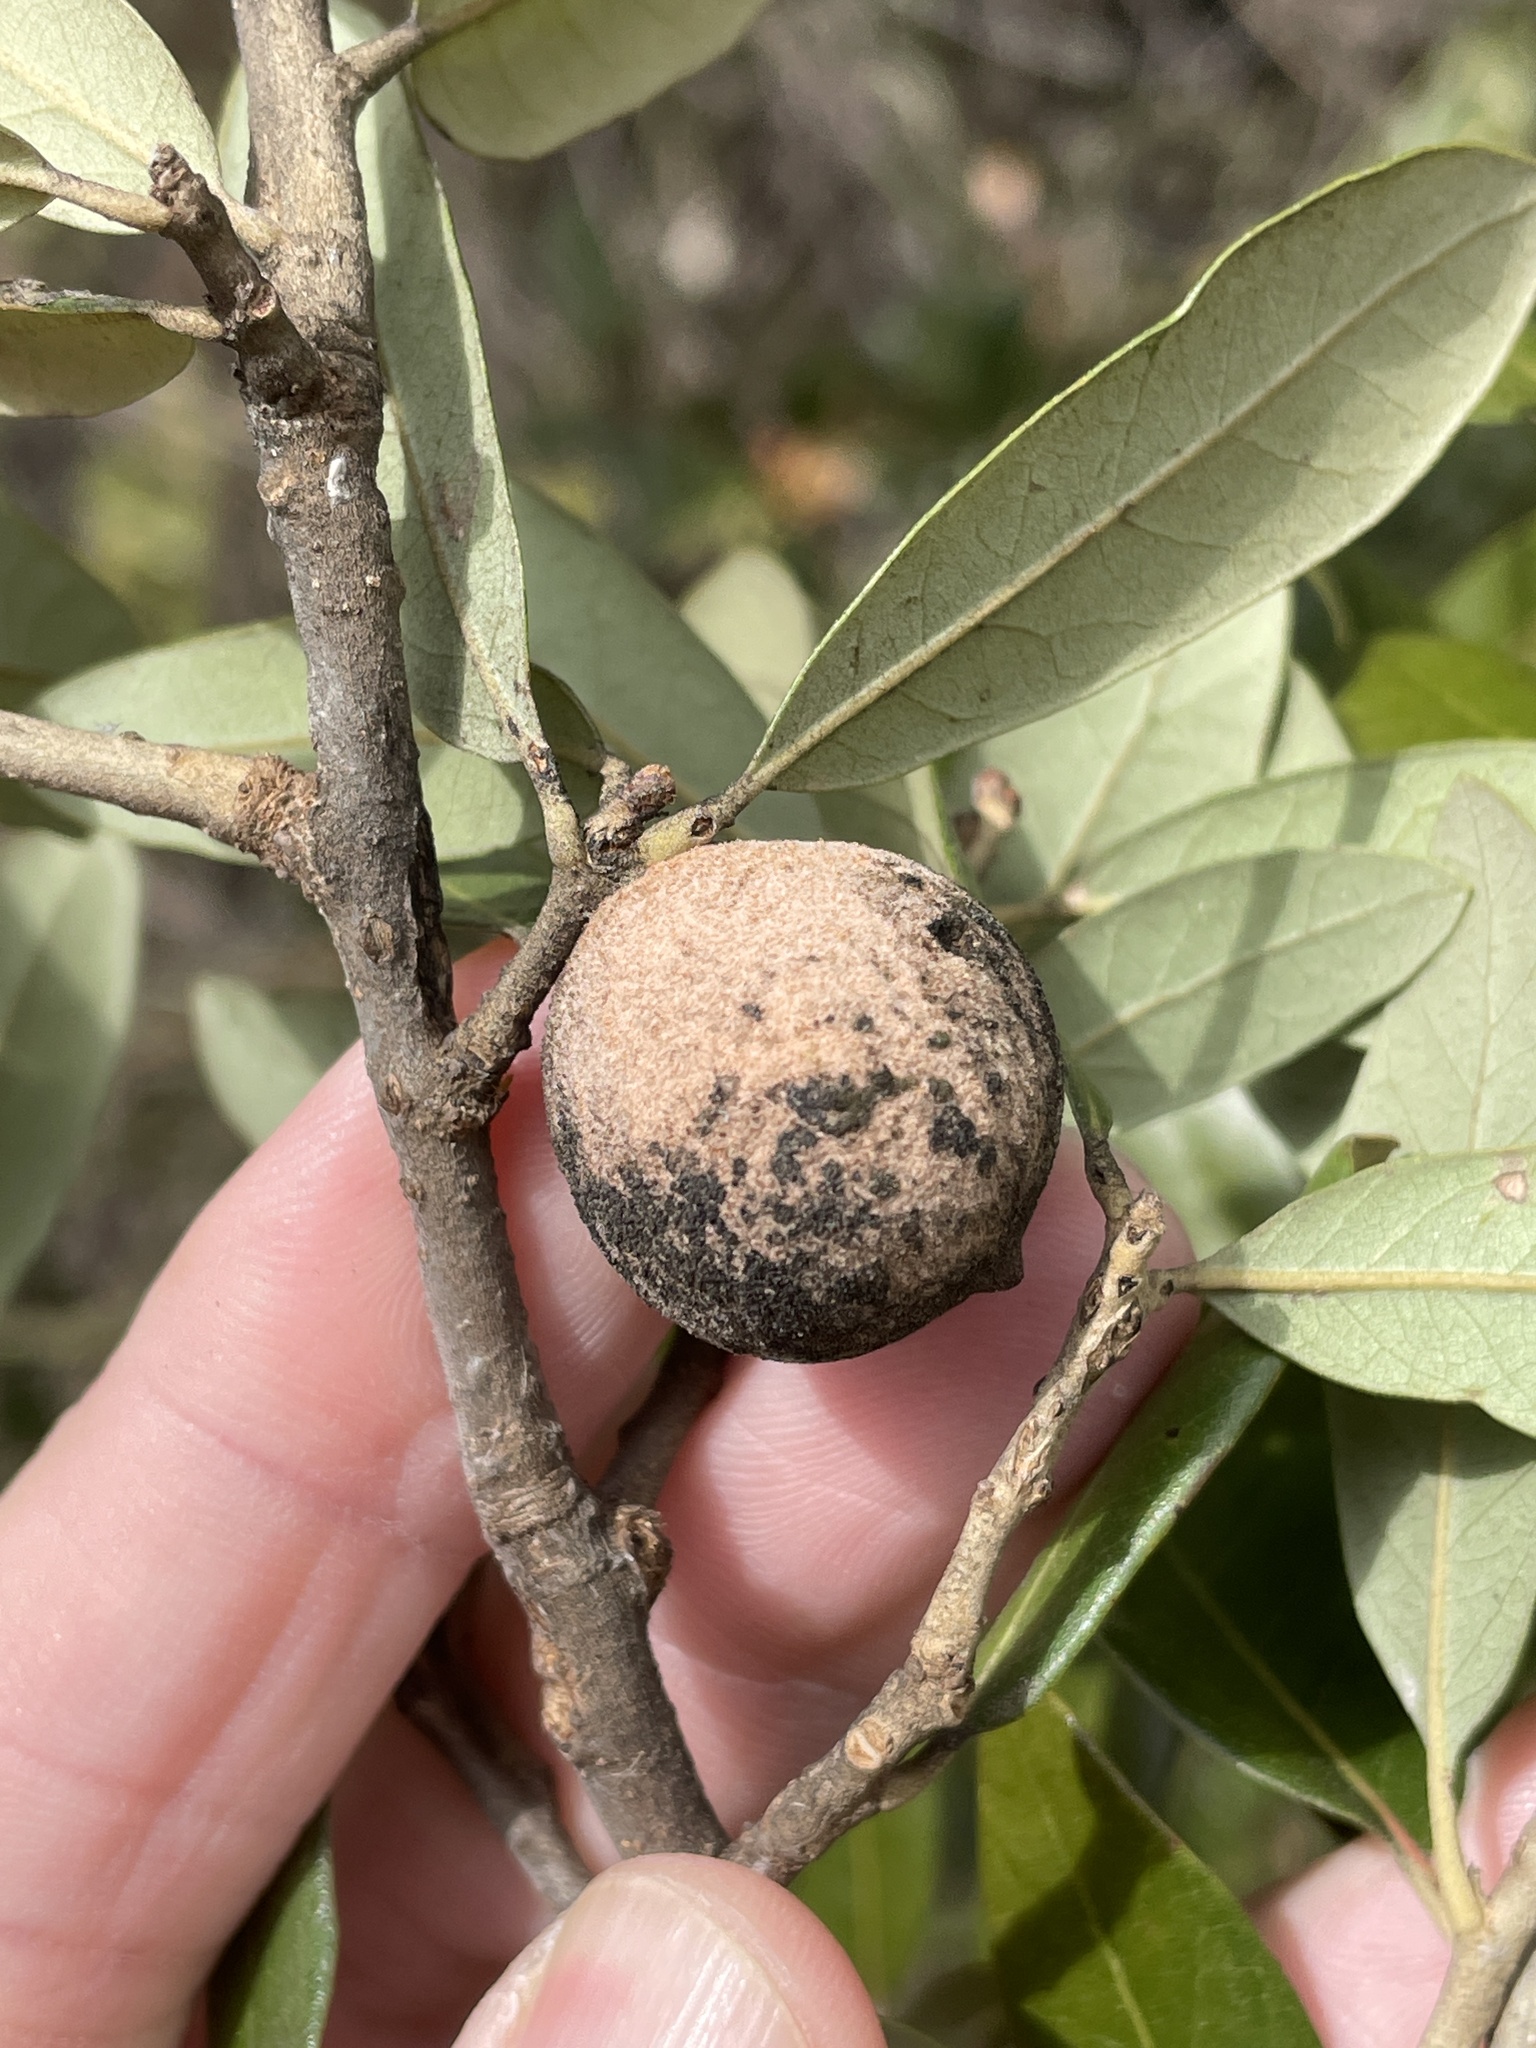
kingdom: Animalia
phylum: Arthropoda
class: Insecta
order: Hymenoptera
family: Cynipidae
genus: Disholcaspis
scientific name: Disholcaspis
